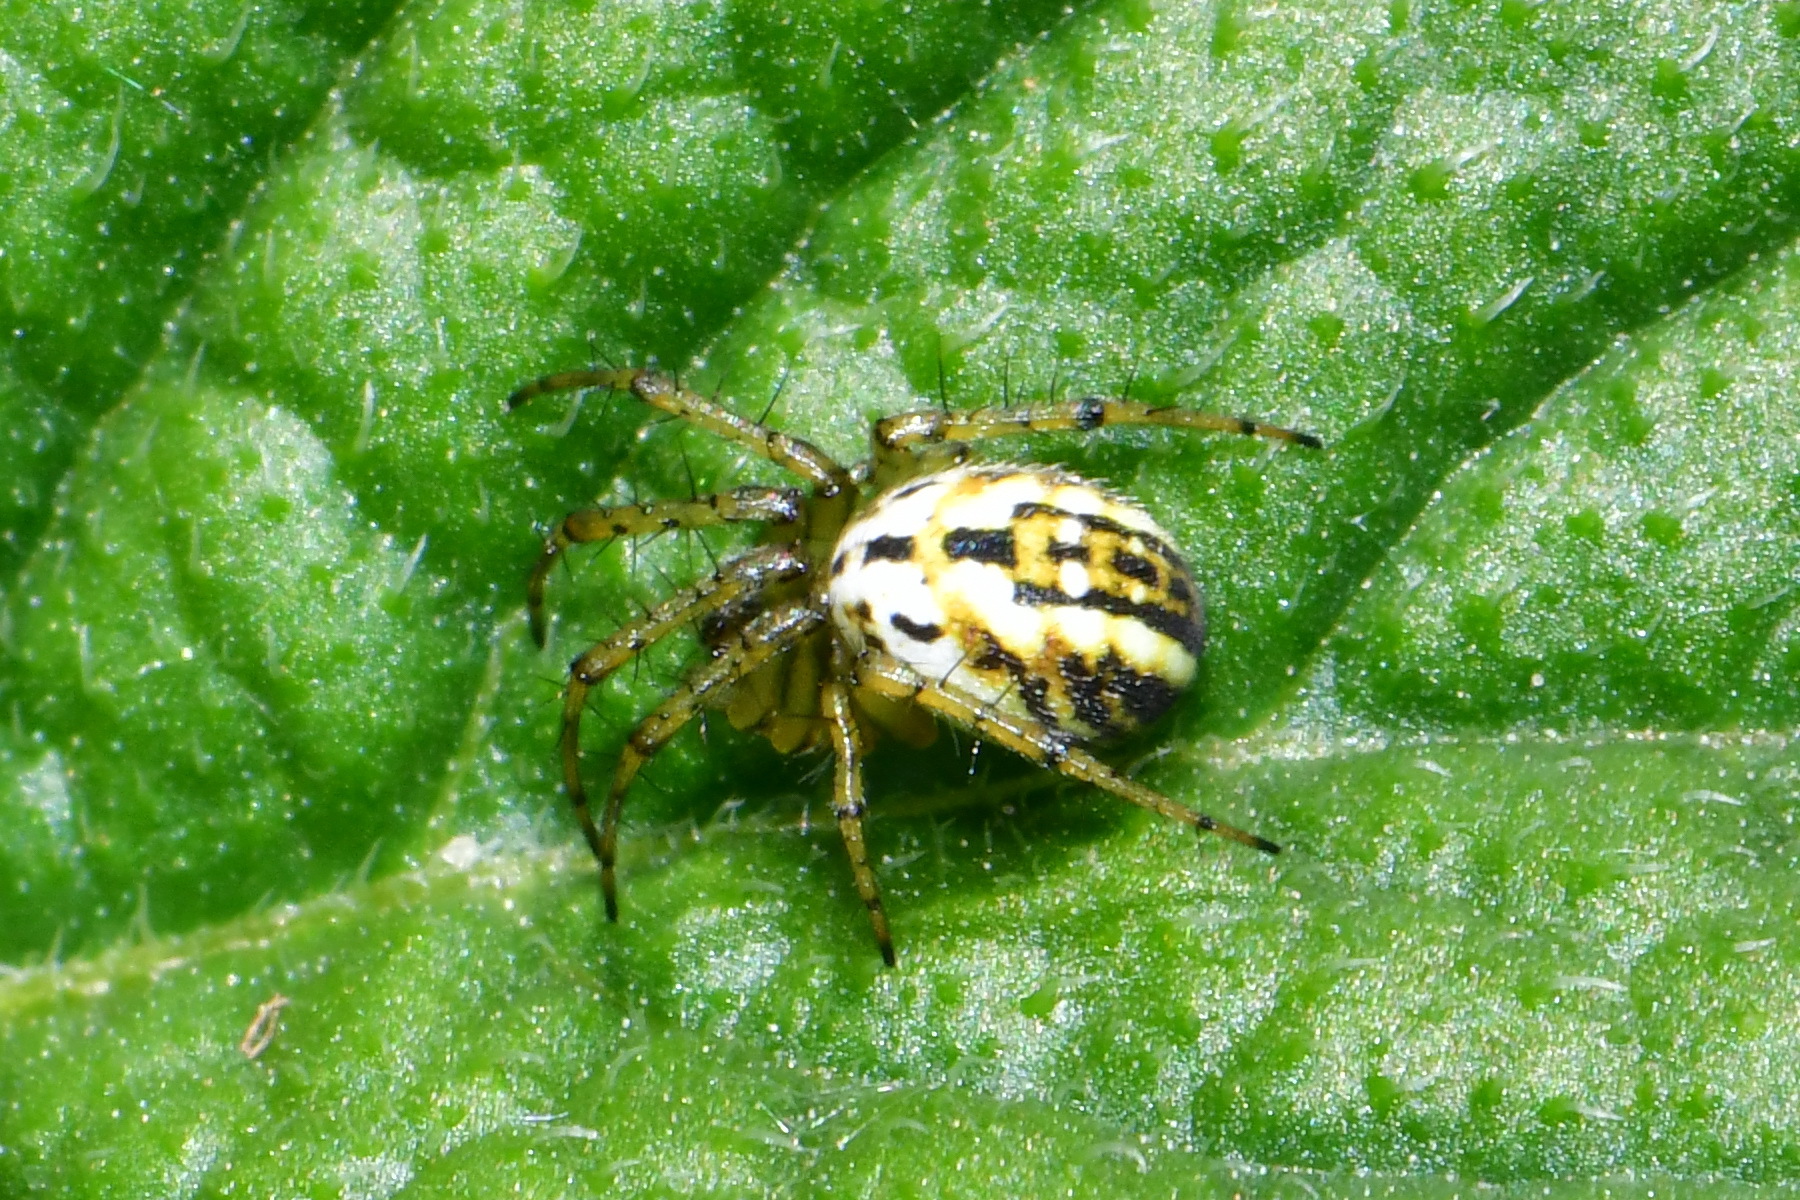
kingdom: Animalia
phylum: Arthropoda
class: Arachnida
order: Araneae
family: Araneidae
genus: Mangora
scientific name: Mangora acalypha
